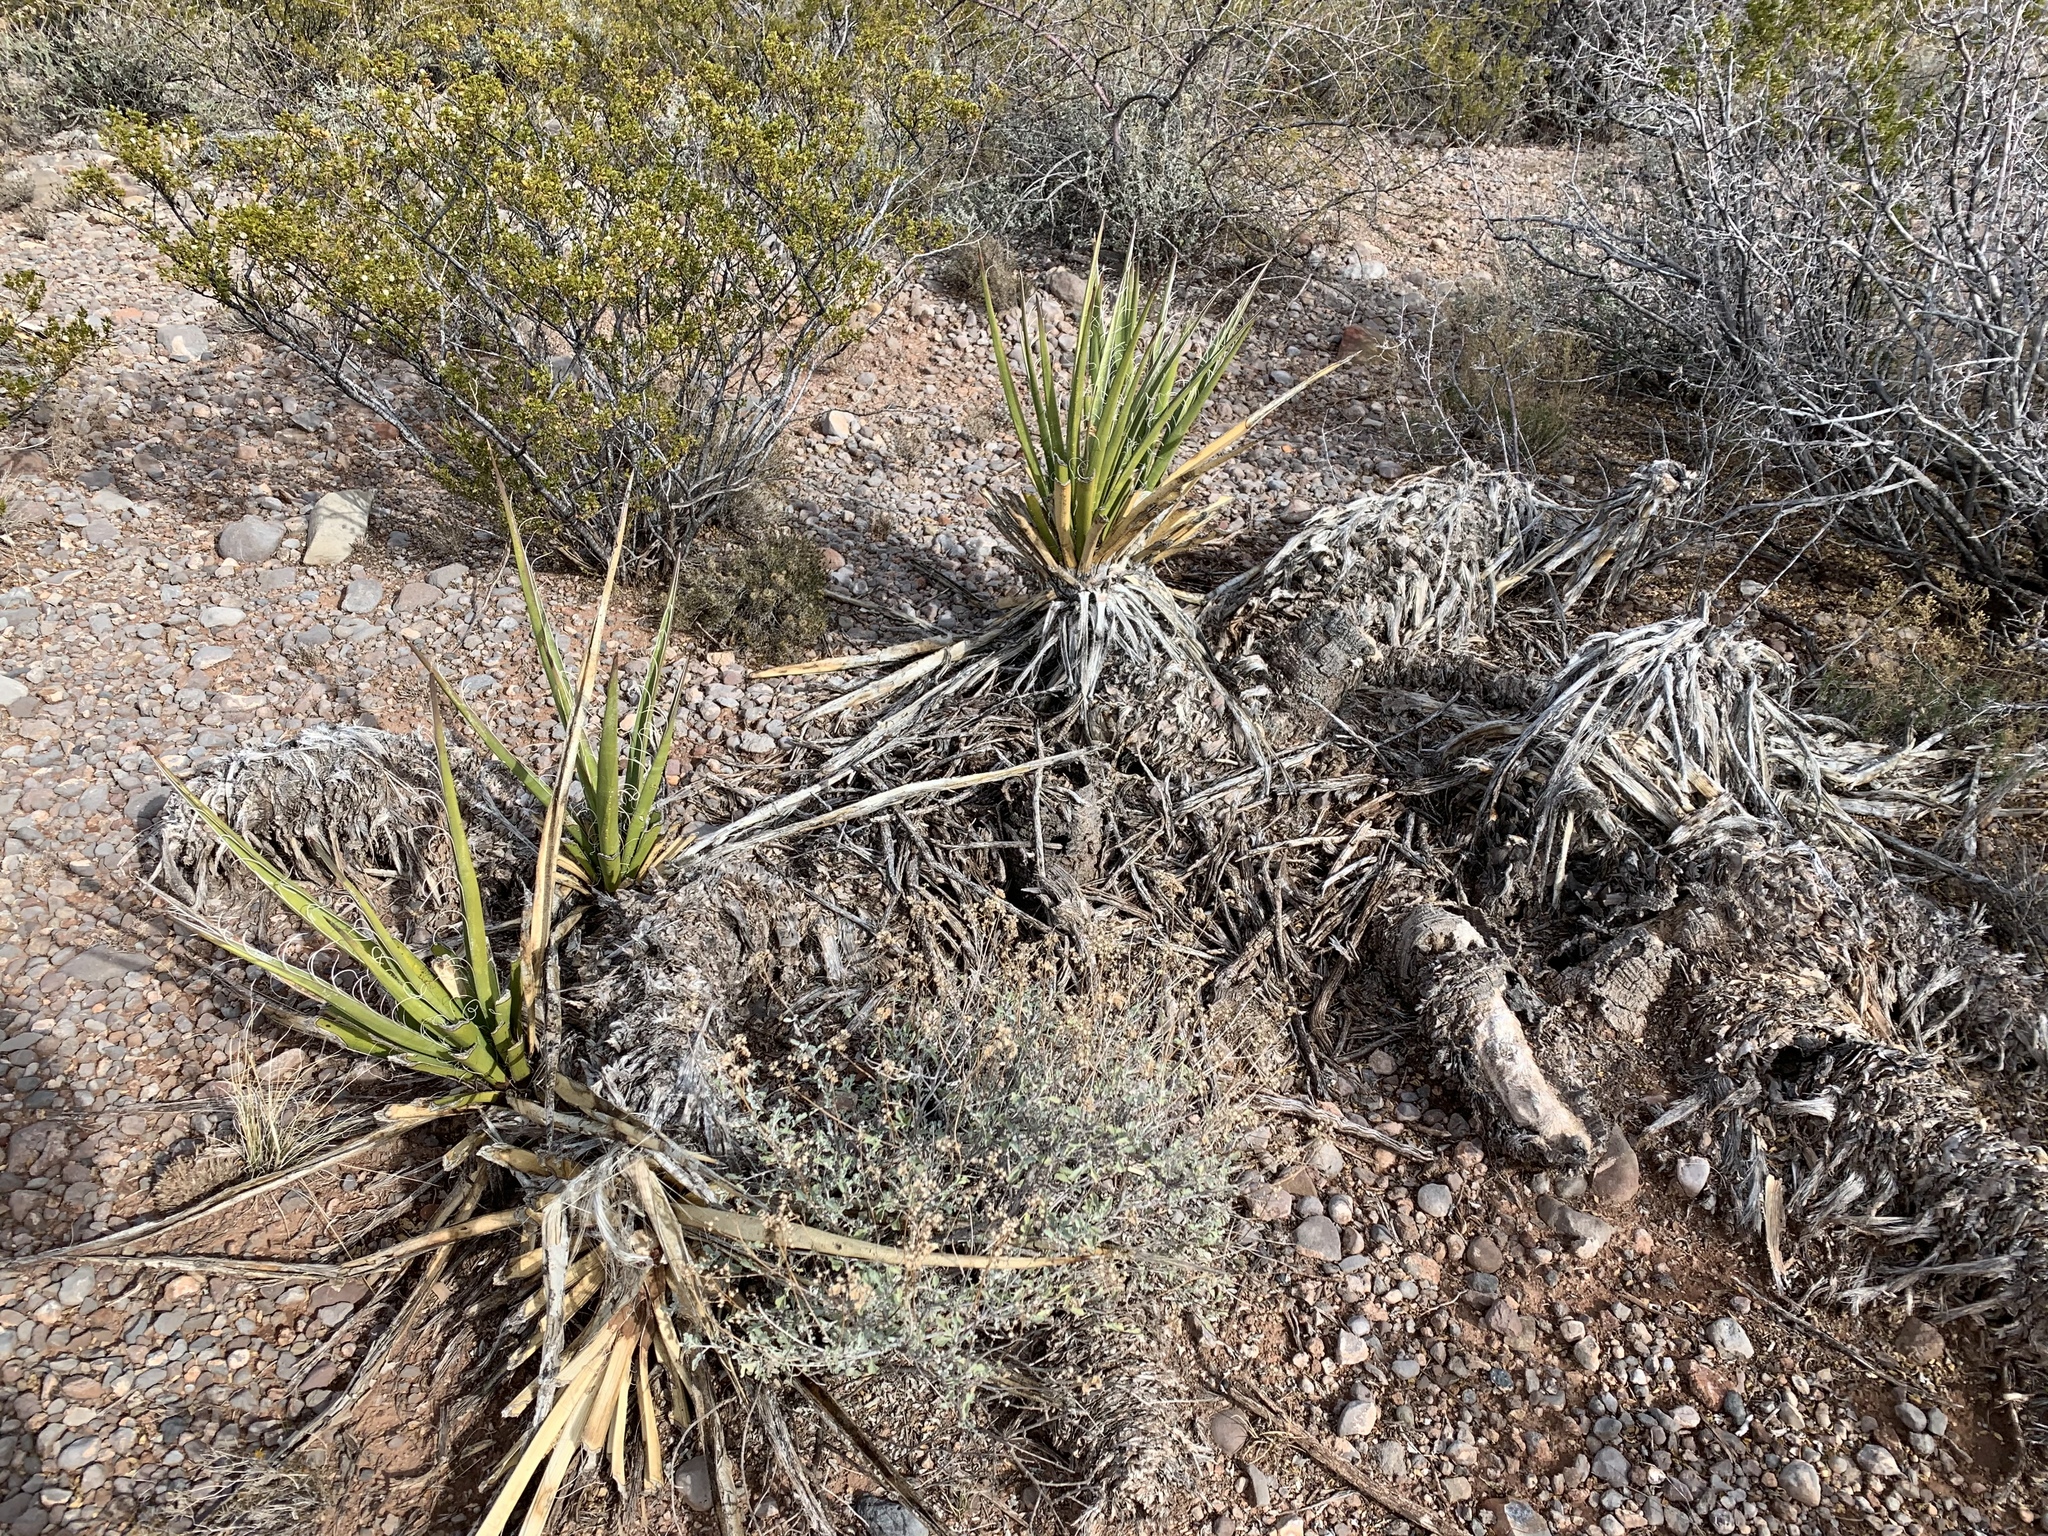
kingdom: Plantae
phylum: Tracheophyta
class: Liliopsida
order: Asparagales
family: Asparagaceae
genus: Yucca
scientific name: Yucca baccata
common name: Banana yucca
